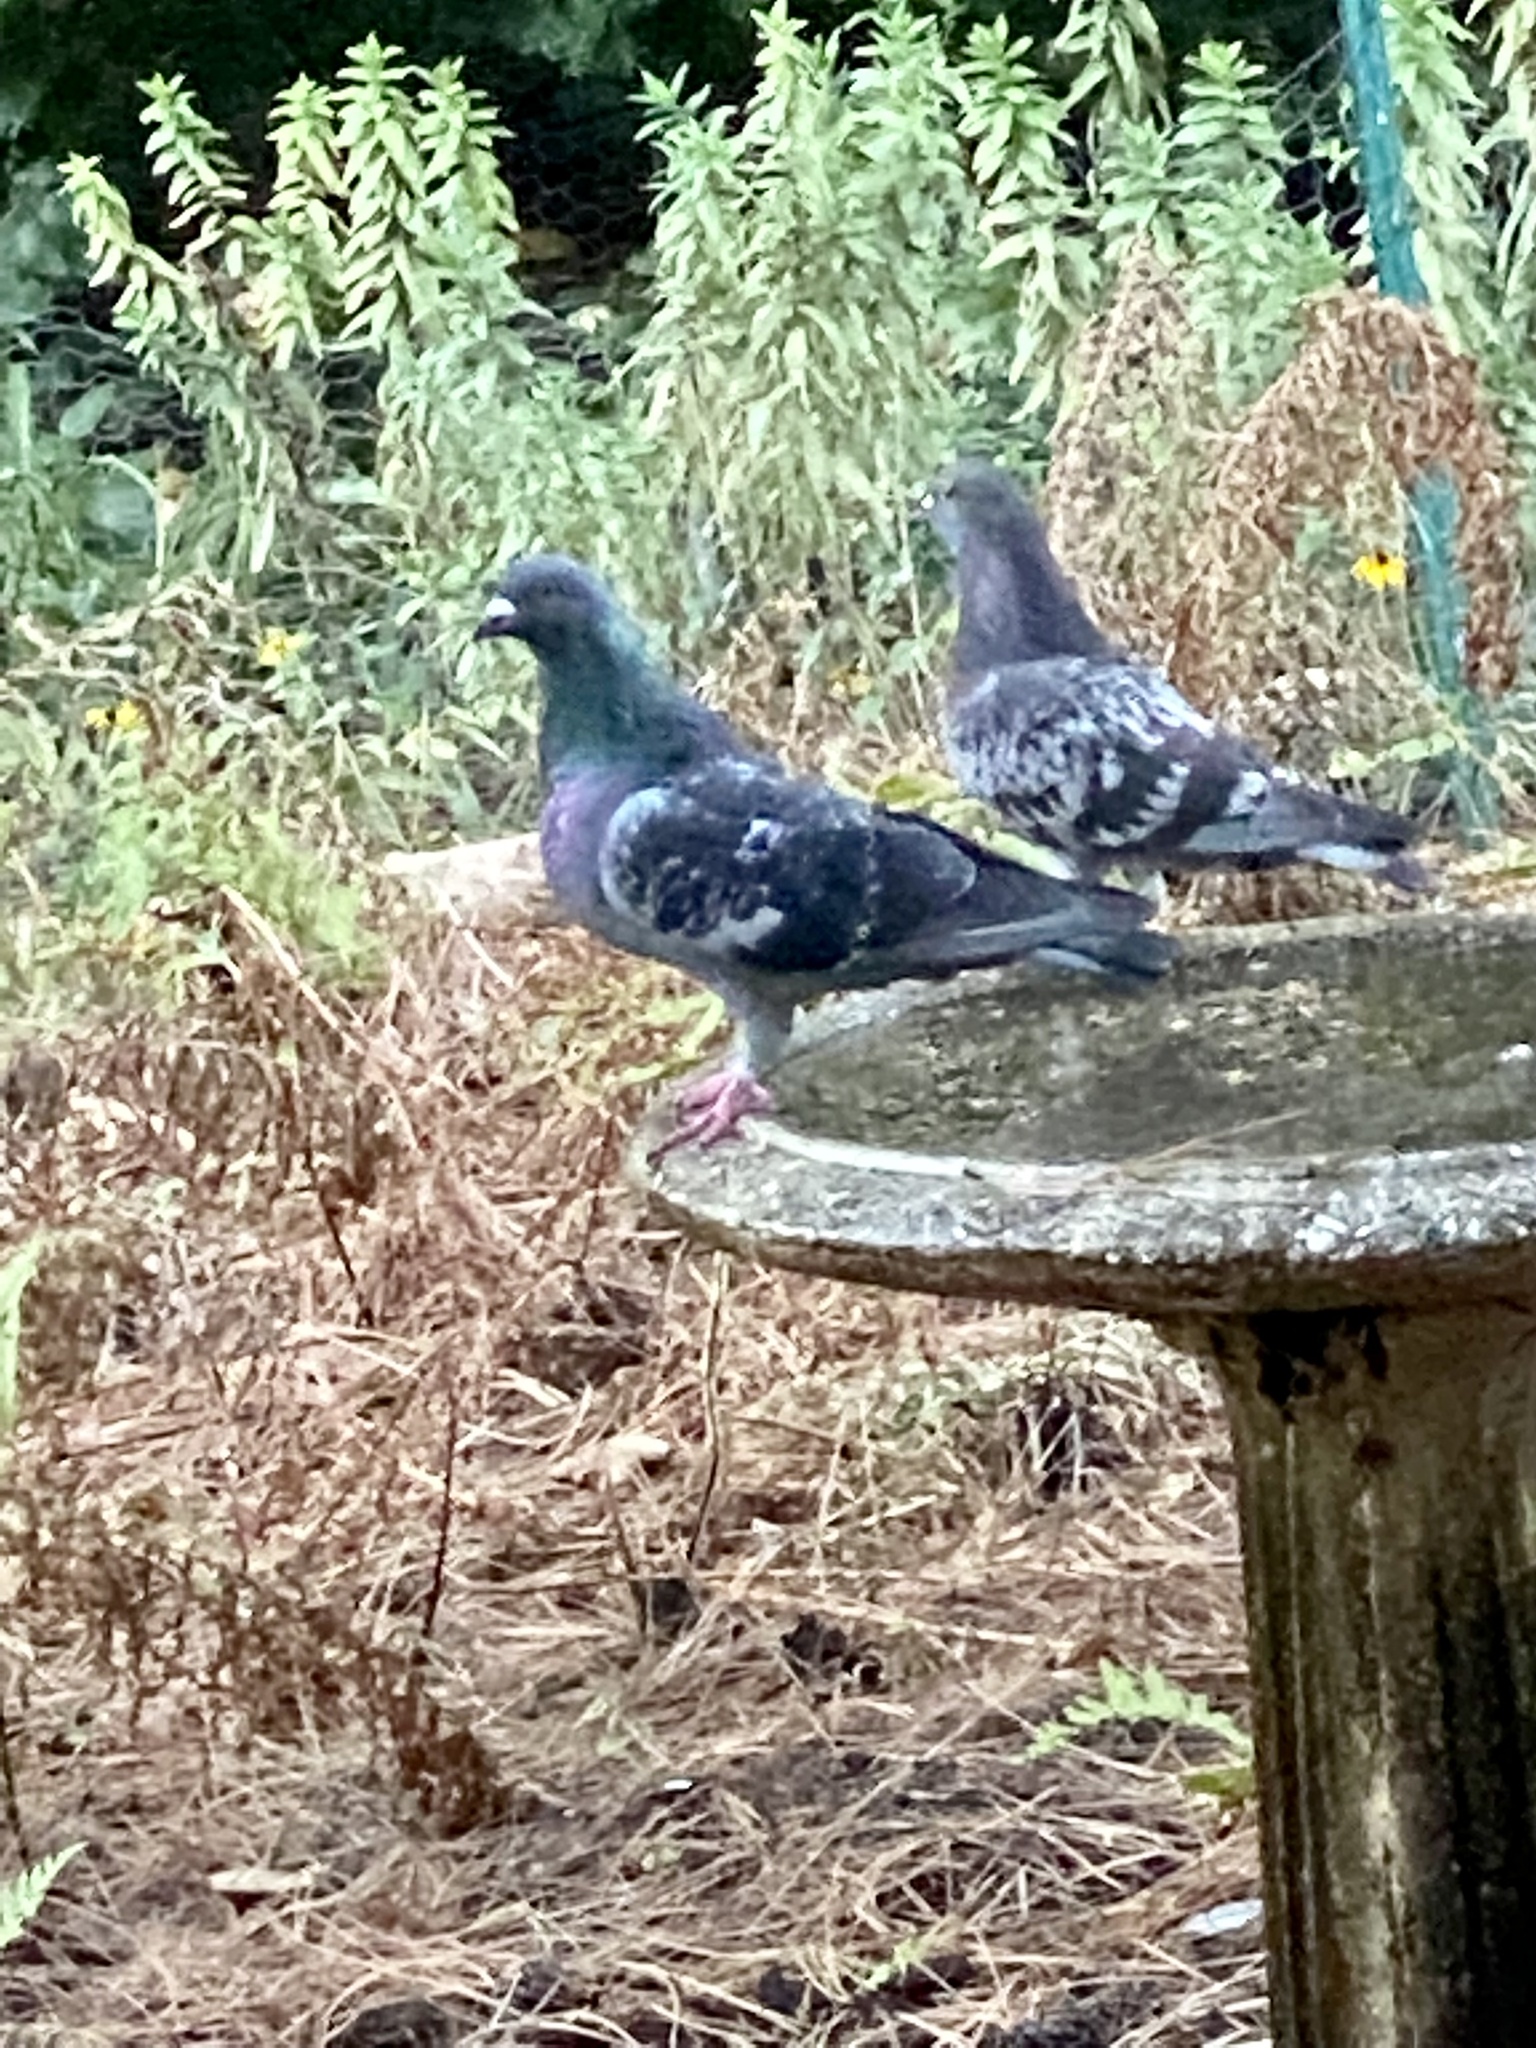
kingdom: Animalia
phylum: Chordata
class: Aves
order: Columbiformes
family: Columbidae
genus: Columba
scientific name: Columba livia
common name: Rock pigeon
